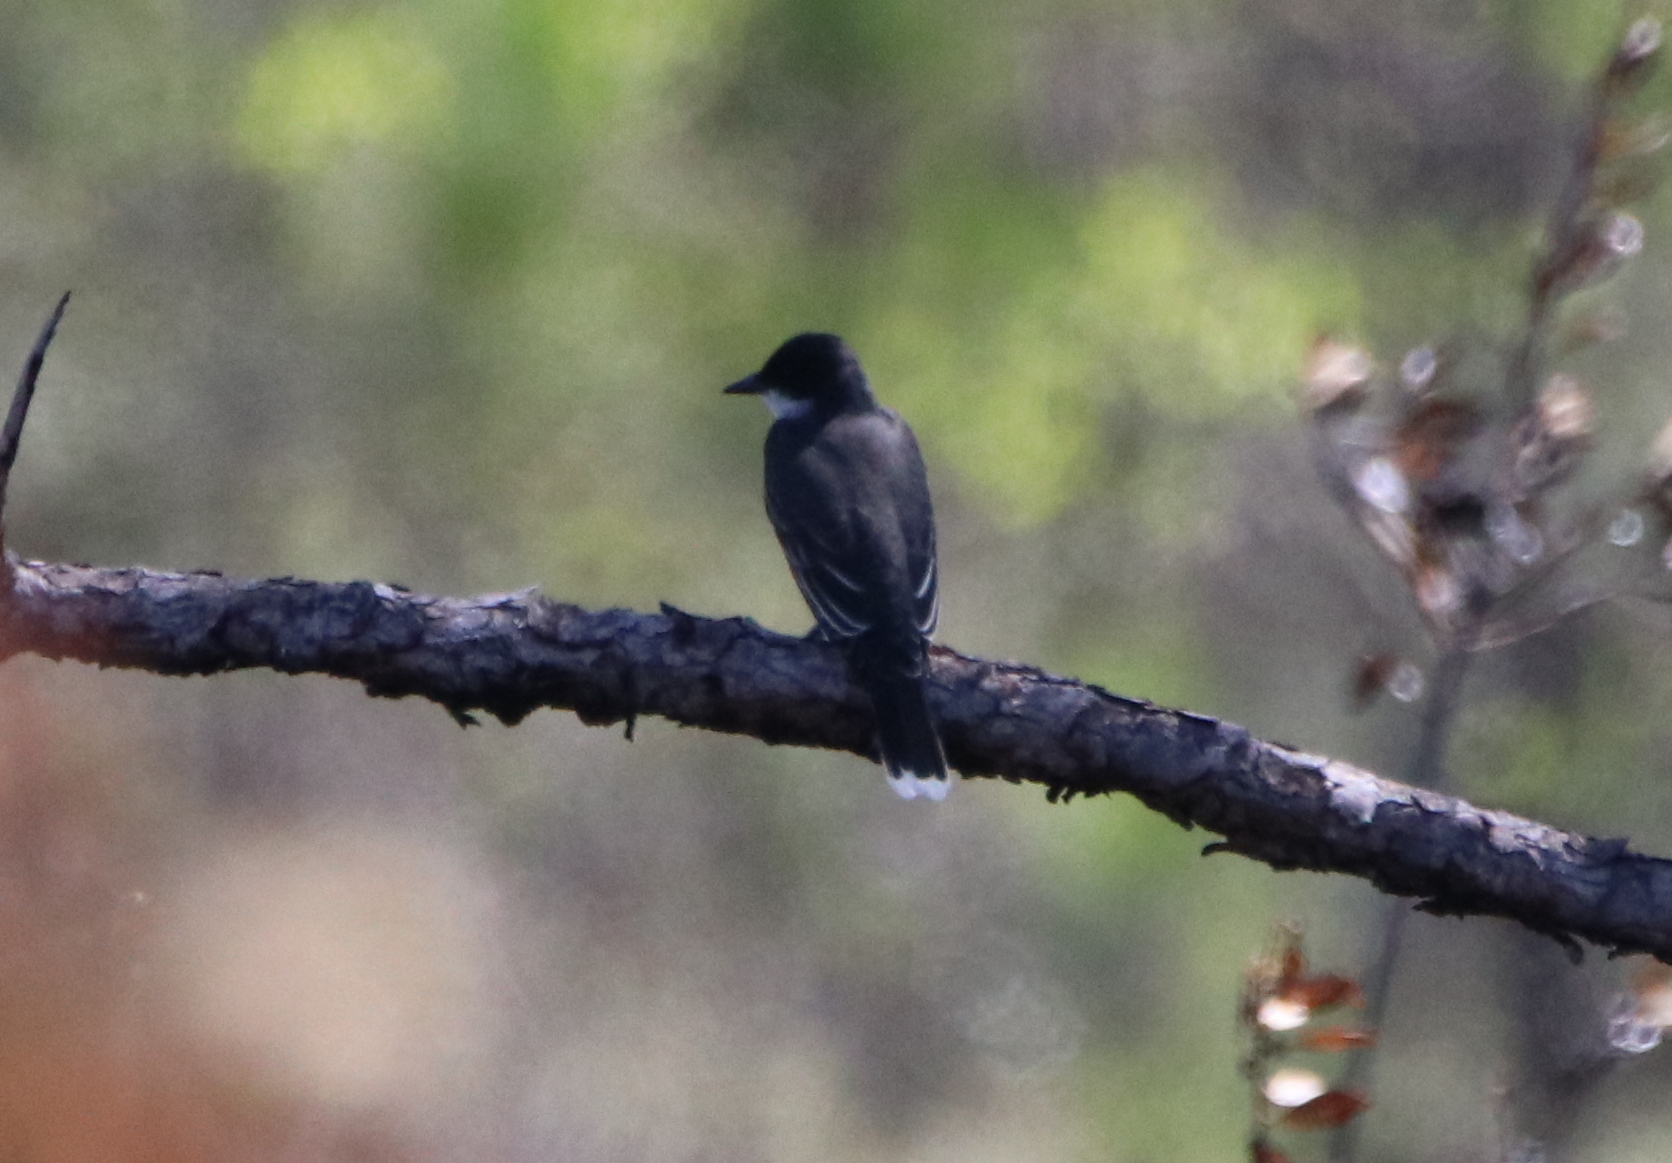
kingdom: Animalia
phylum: Chordata
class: Aves
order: Passeriformes
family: Tyrannidae
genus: Tyrannus
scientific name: Tyrannus tyrannus
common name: Eastern kingbird
